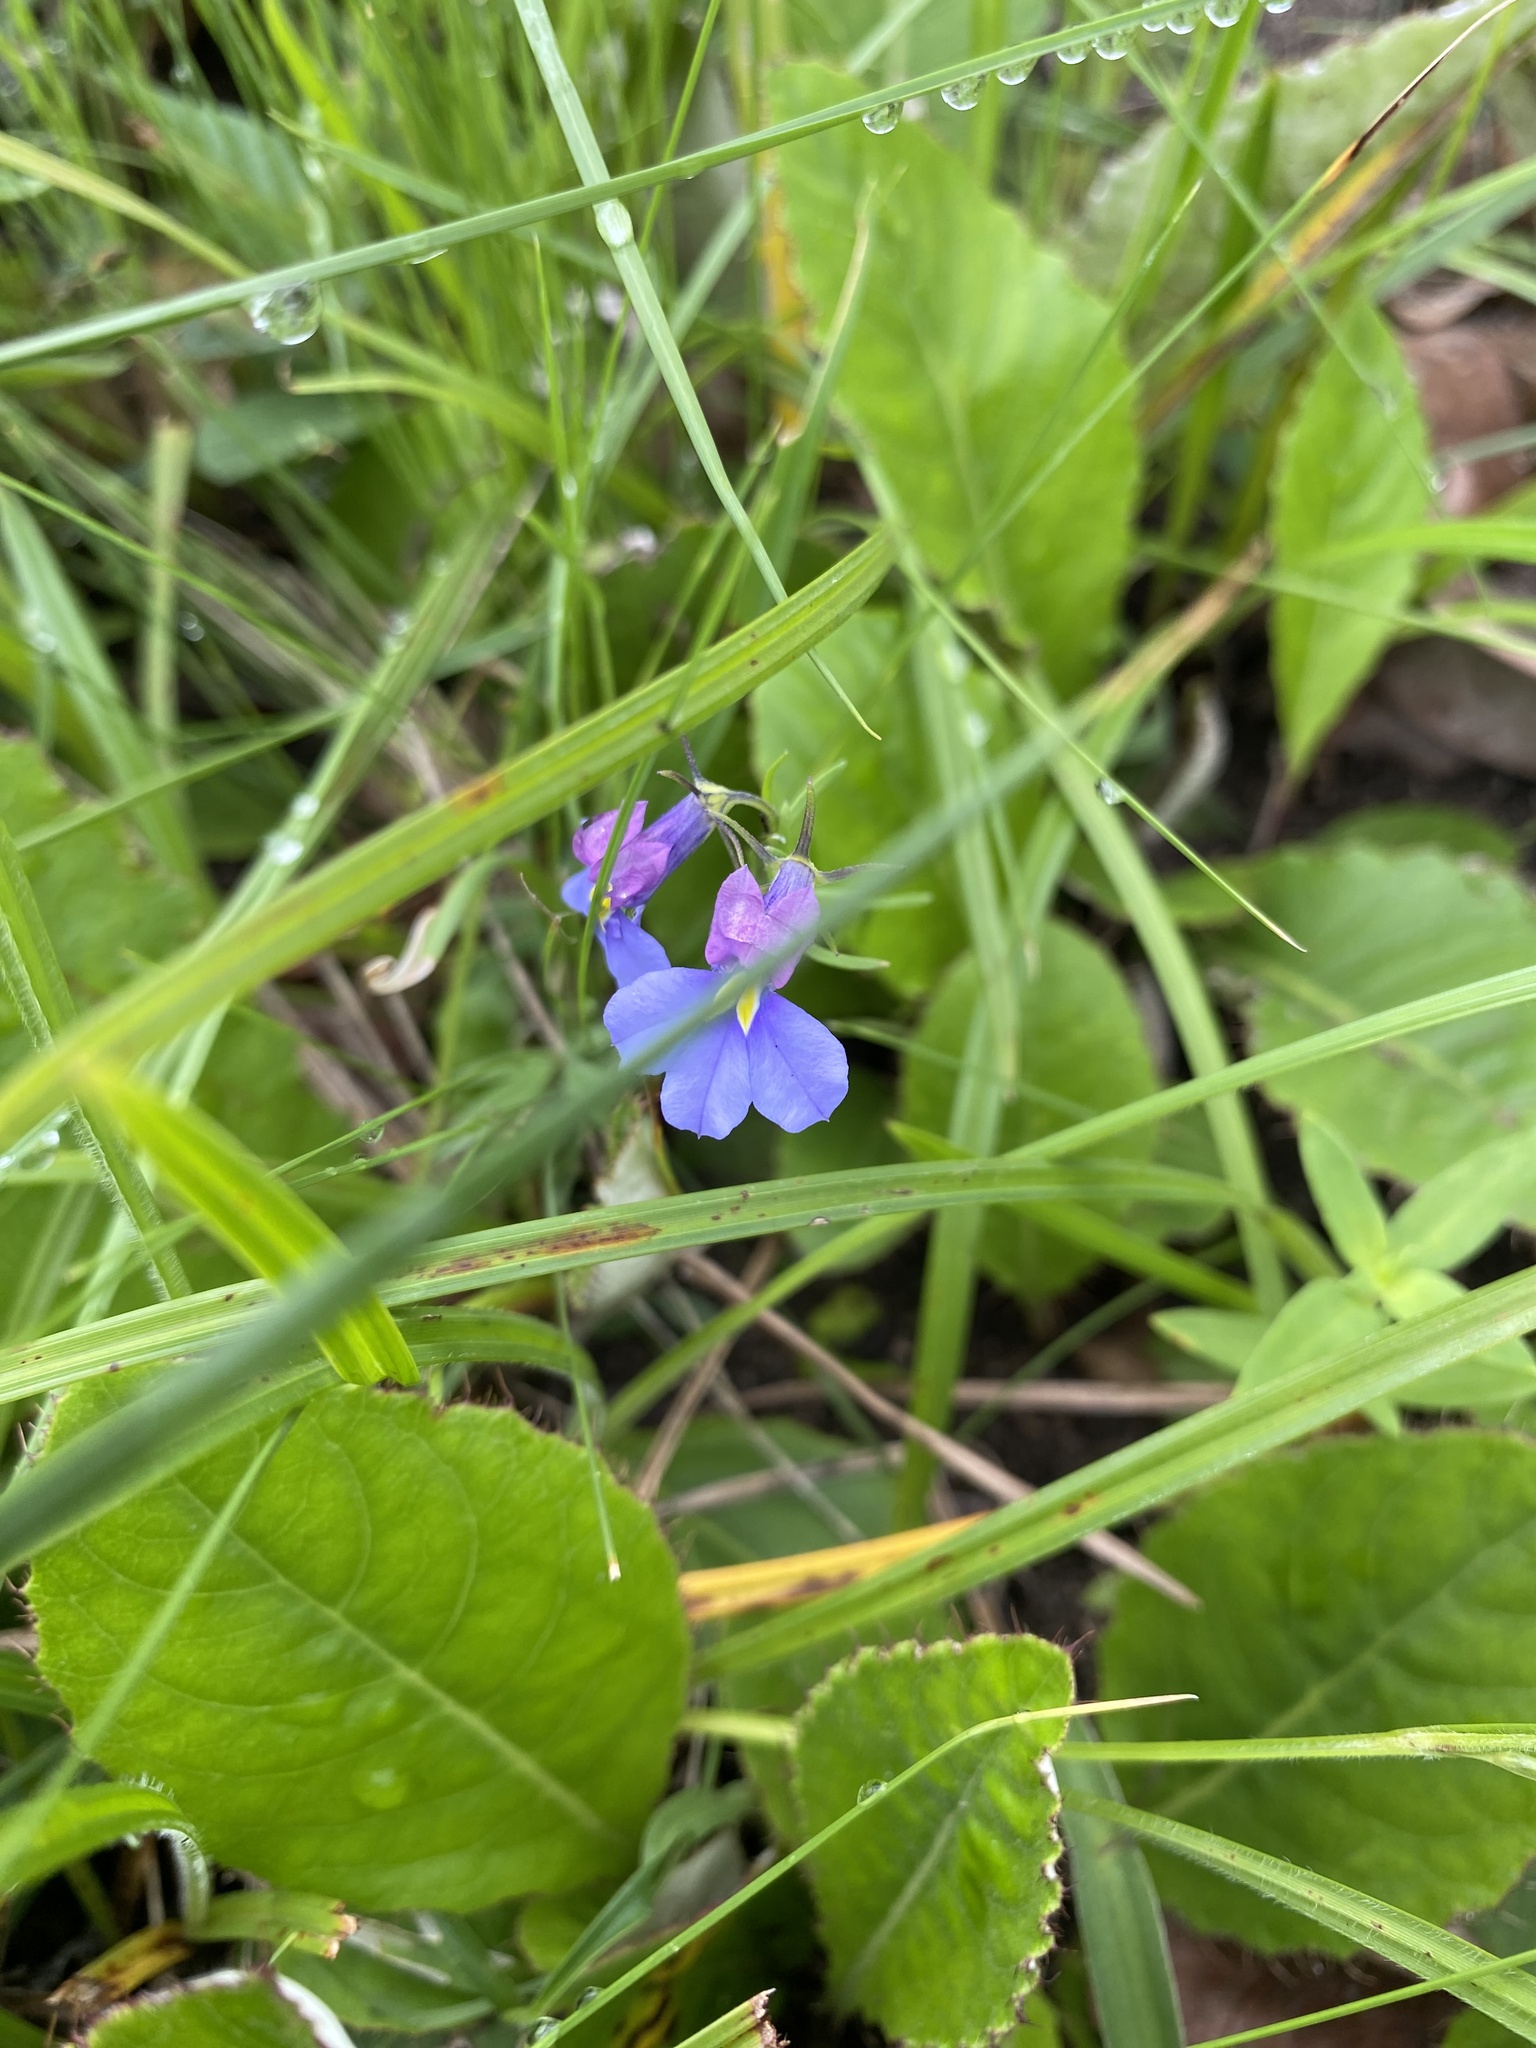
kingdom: Plantae
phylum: Tracheophyta
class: Magnoliopsida
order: Asterales
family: Campanulaceae
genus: Monopsis
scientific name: Monopsis decipiens
